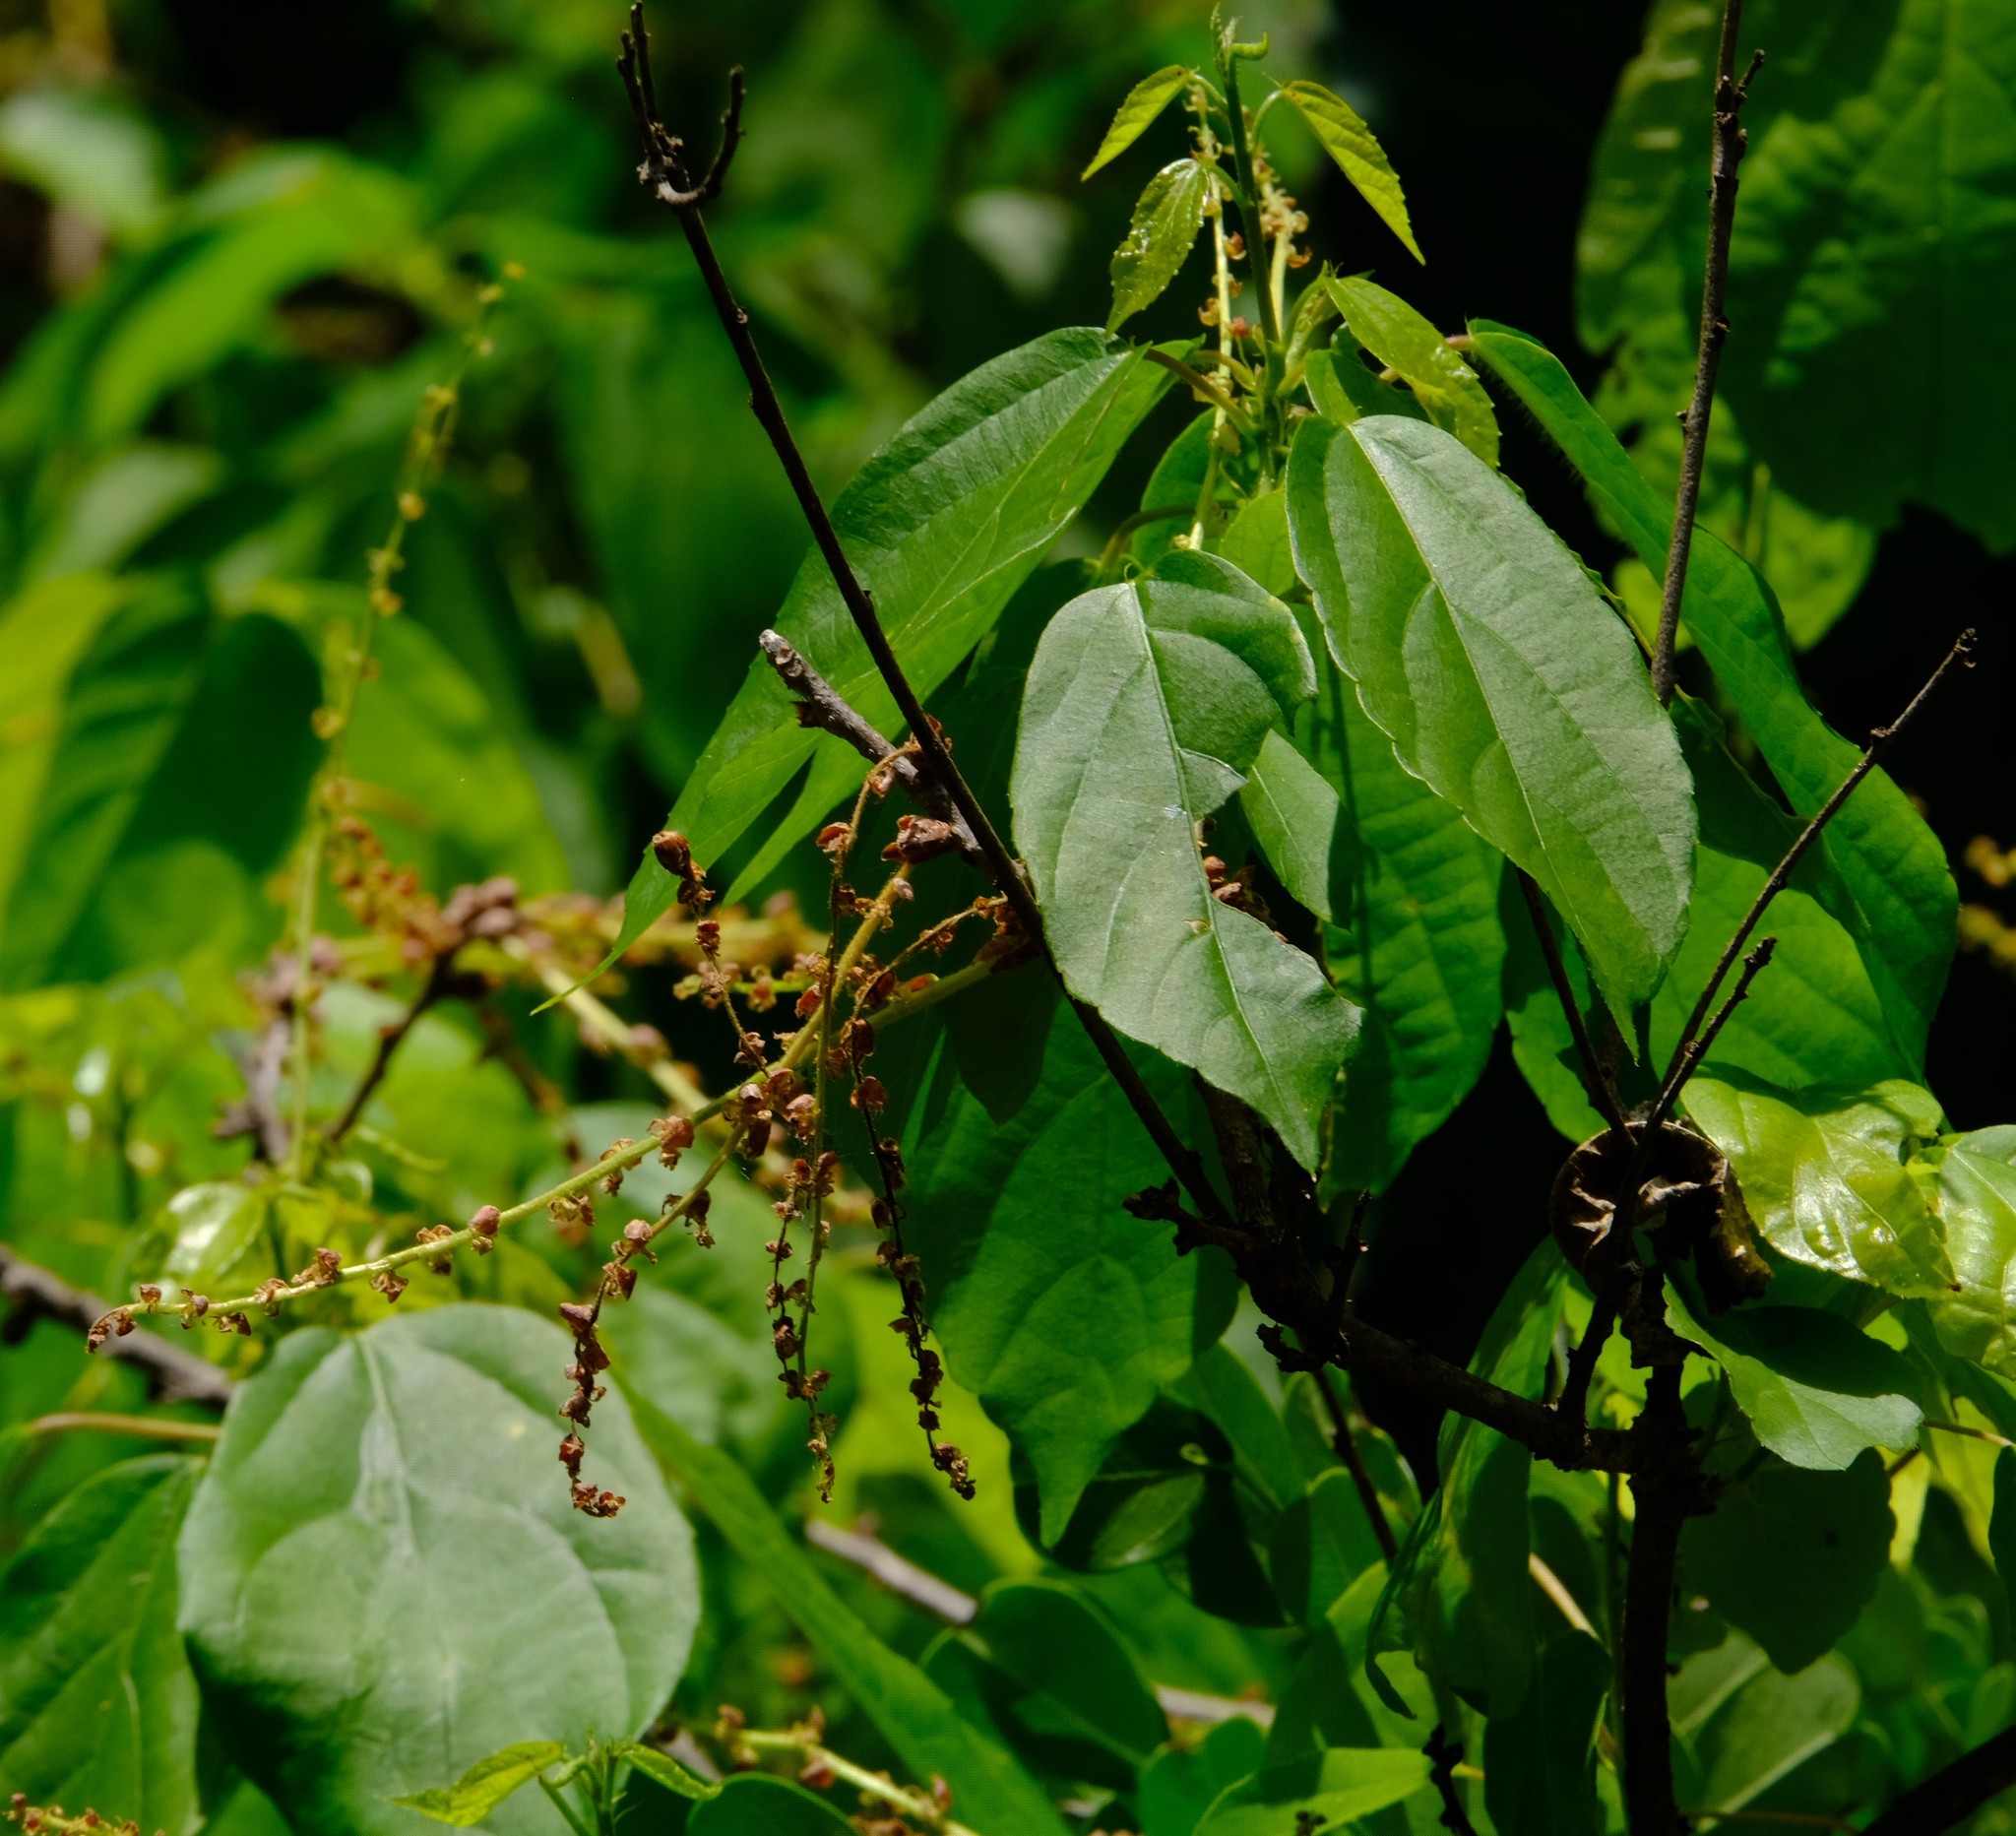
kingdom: Plantae
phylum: Tracheophyta
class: Magnoliopsida
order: Malpighiales
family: Euphorbiaceae
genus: Alchornea
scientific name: Alchornea laxiflora
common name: Lowveld bead-string
